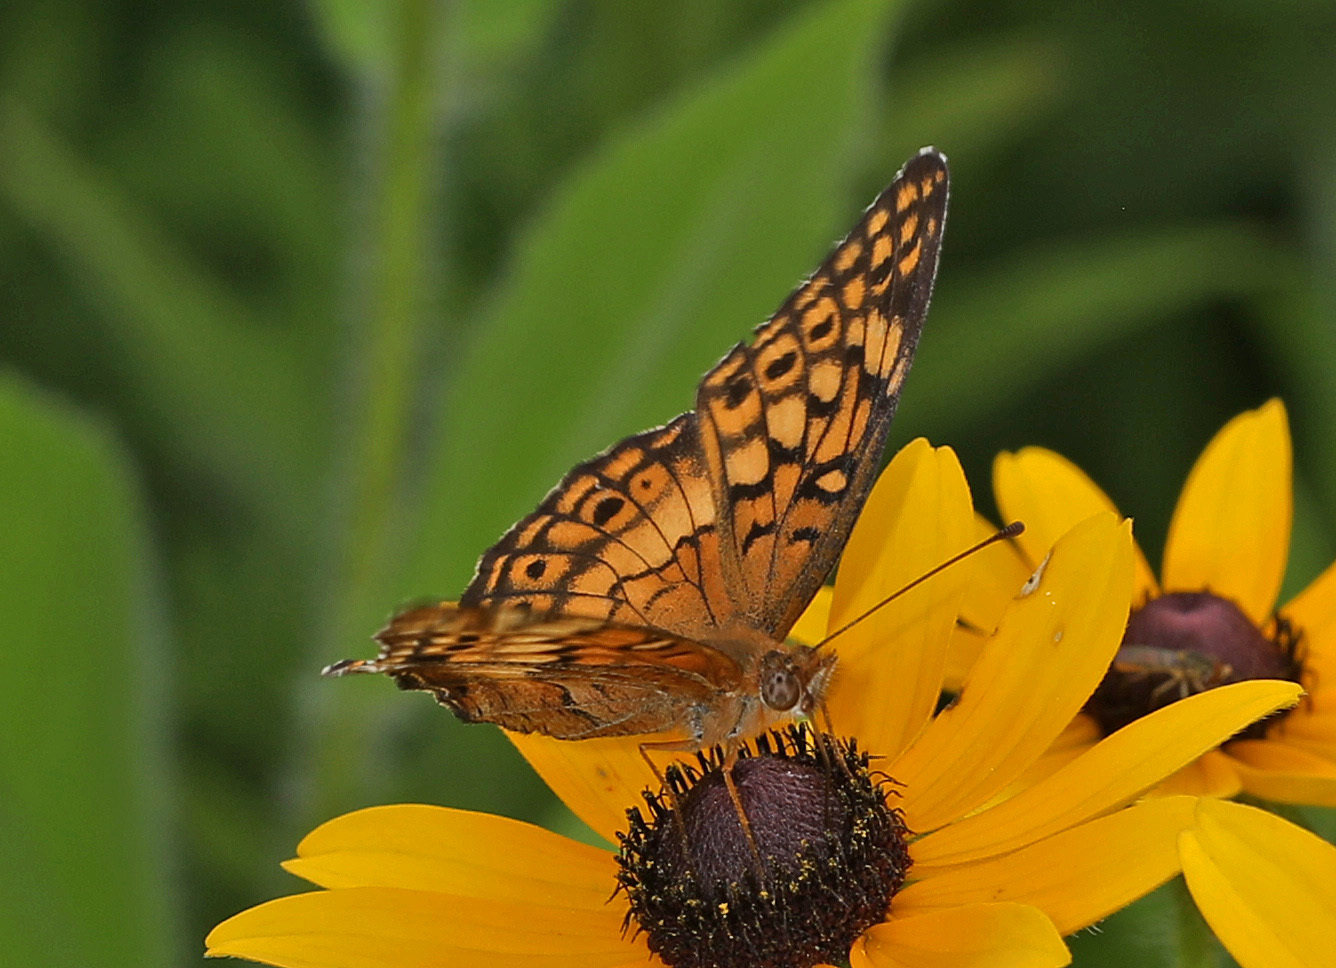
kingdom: Animalia
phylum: Arthropoda
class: Insecta
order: Lepidoptera
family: Nymphalidae
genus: Euptoieta
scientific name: Euptoieta claudia
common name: Variegated fritillary
